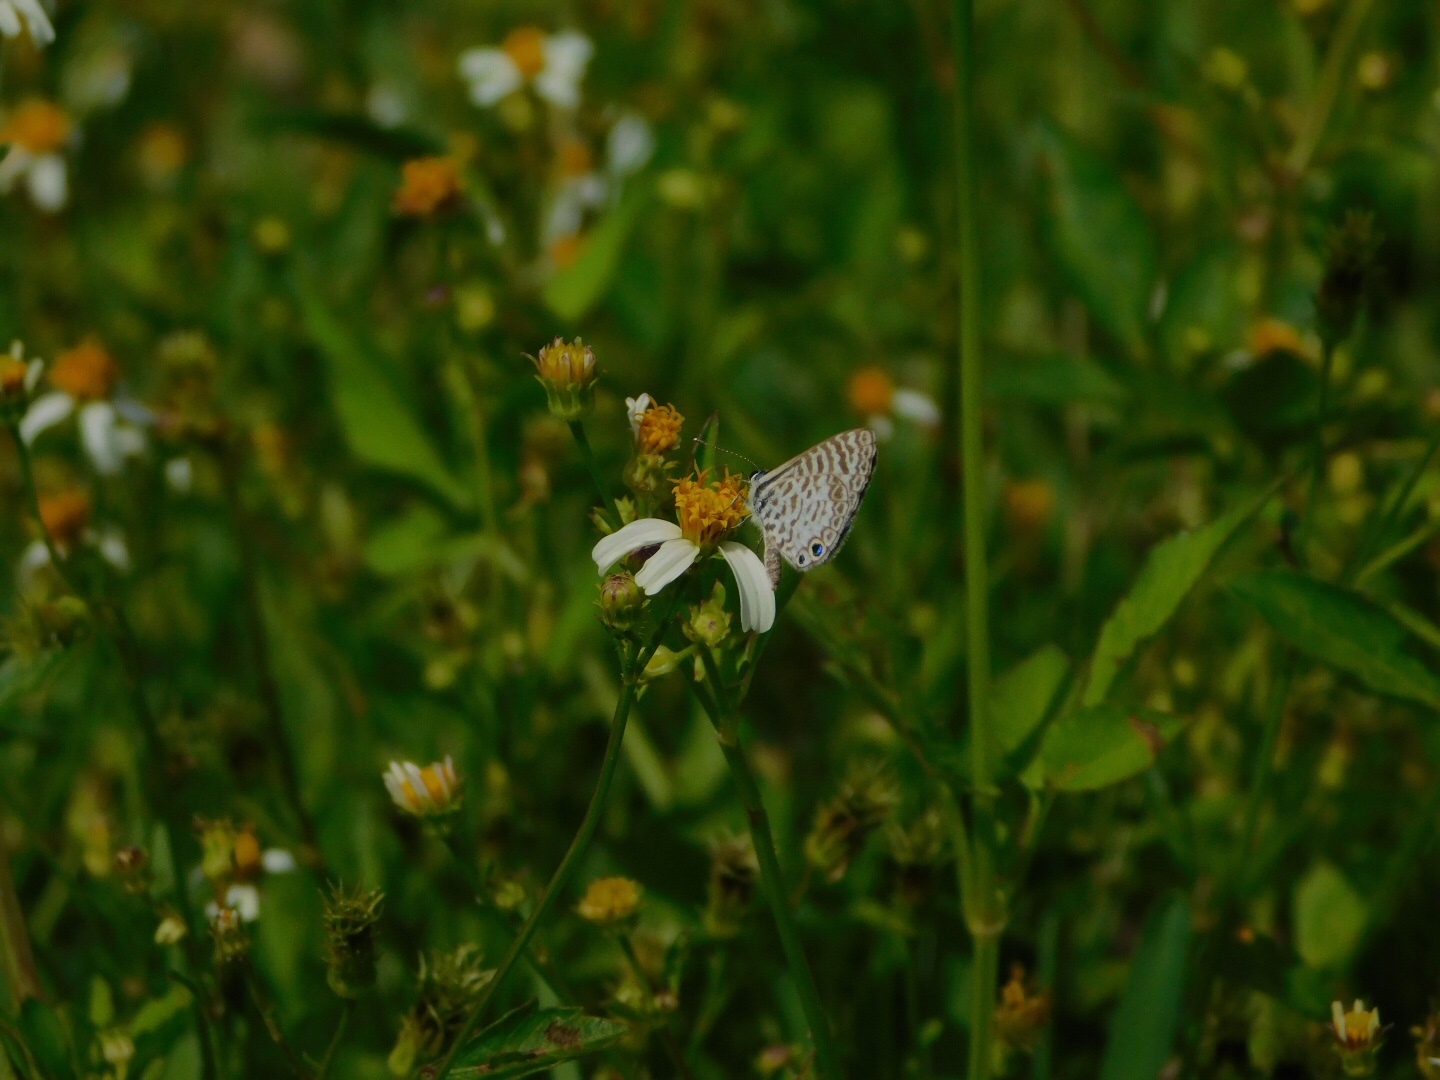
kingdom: Animalia
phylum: Arthropoda
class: Insecta
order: Lepidoptera
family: Lycaenidae
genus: Leptotes
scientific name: Leptotes cassius
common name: Cassius blue
